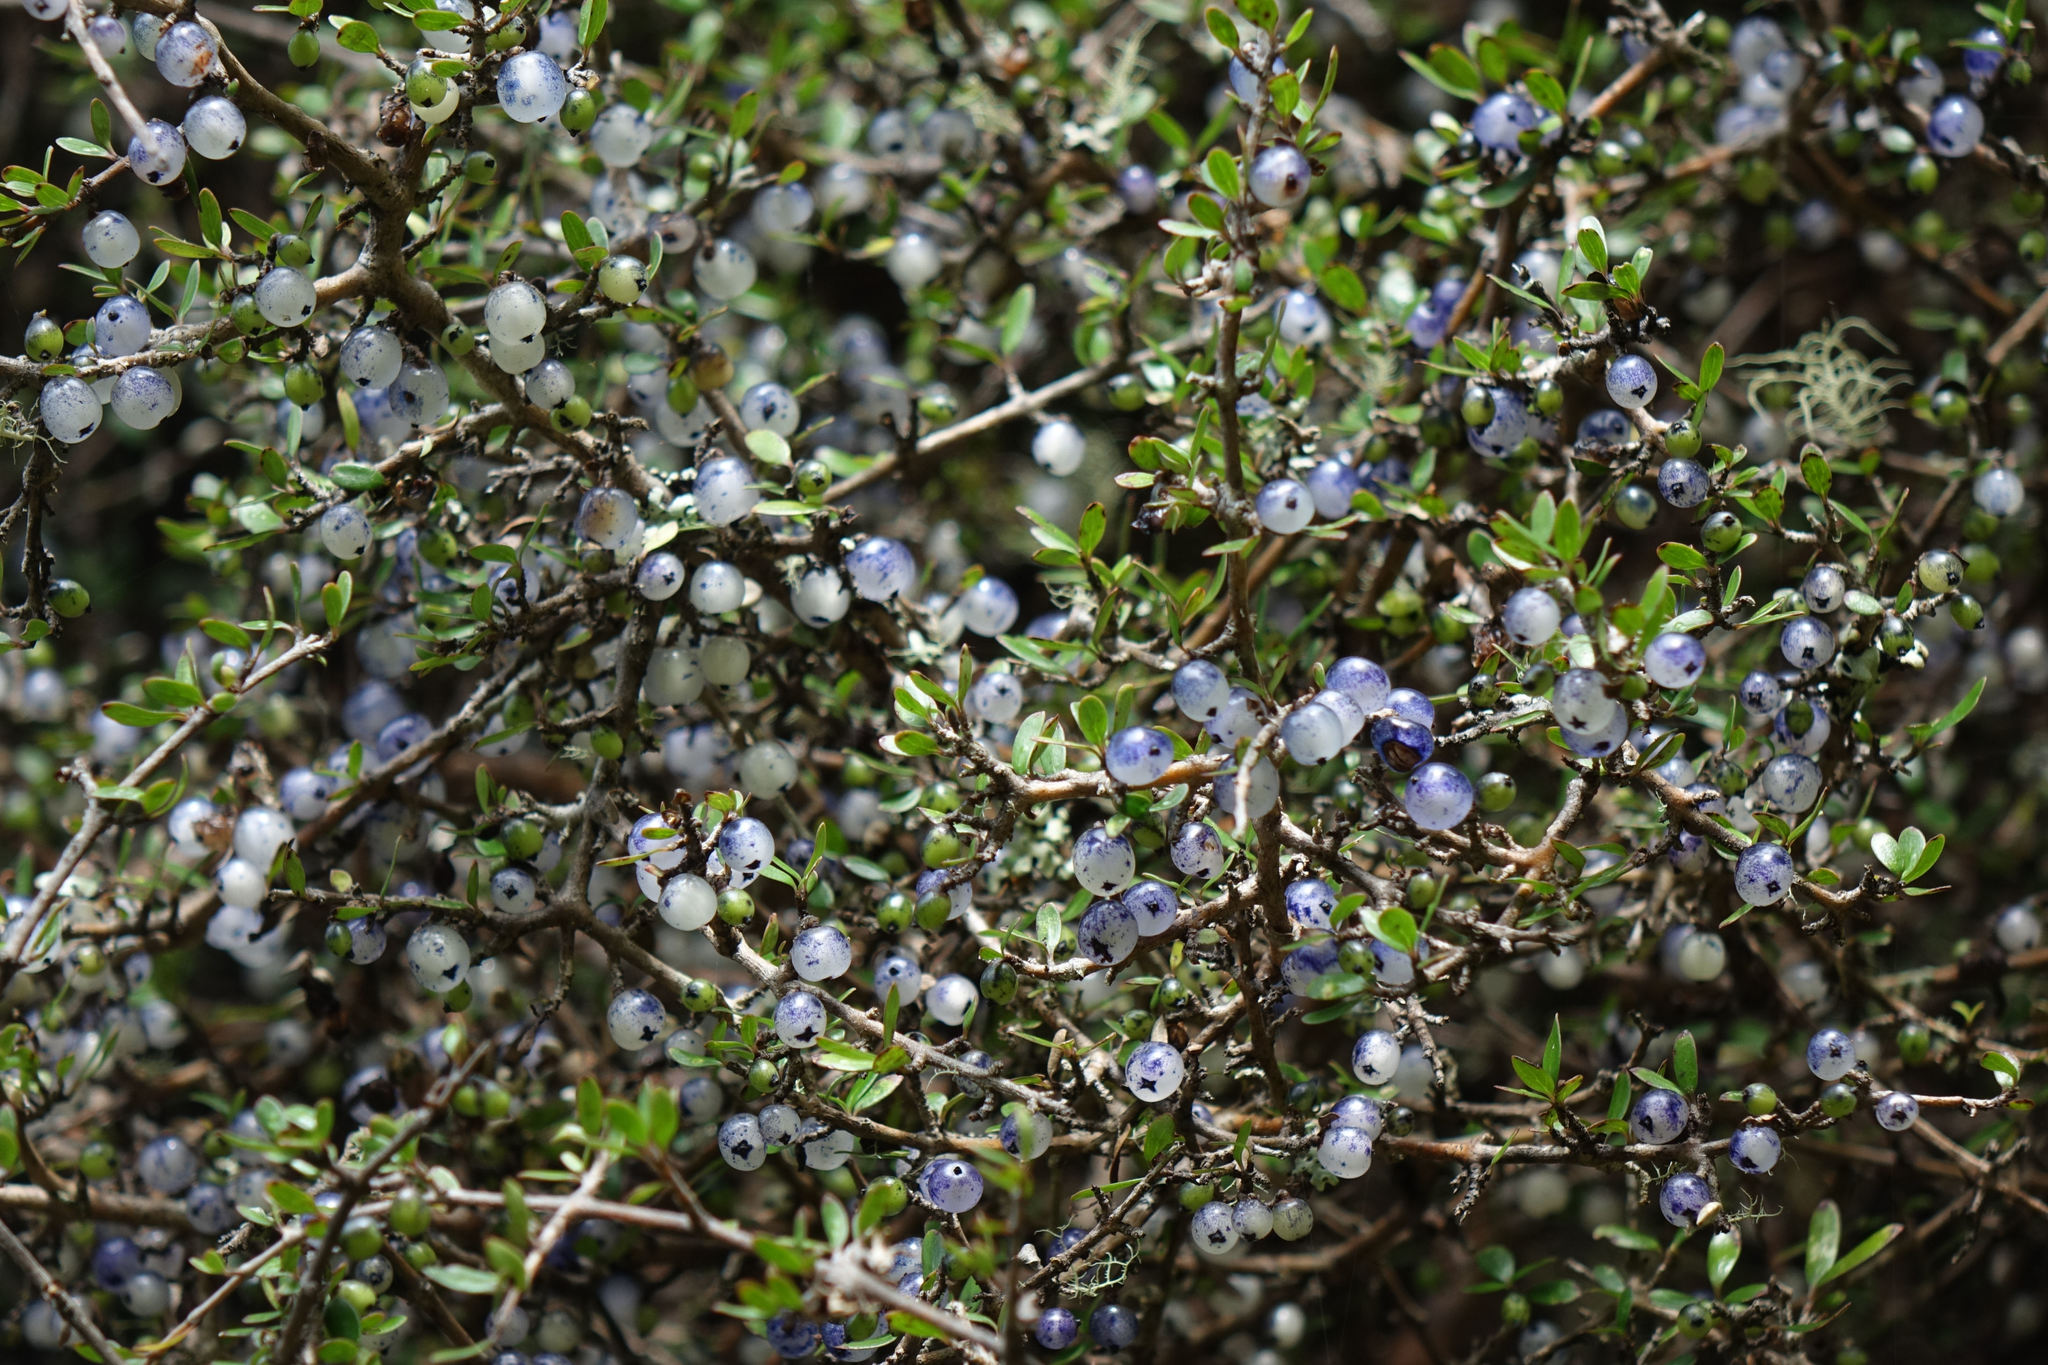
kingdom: Plantae
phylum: Tracheophyta
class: Magnoliopsida
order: Gentianales
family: Rubiaceae
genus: Coprosma
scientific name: Coprosma propinqua
